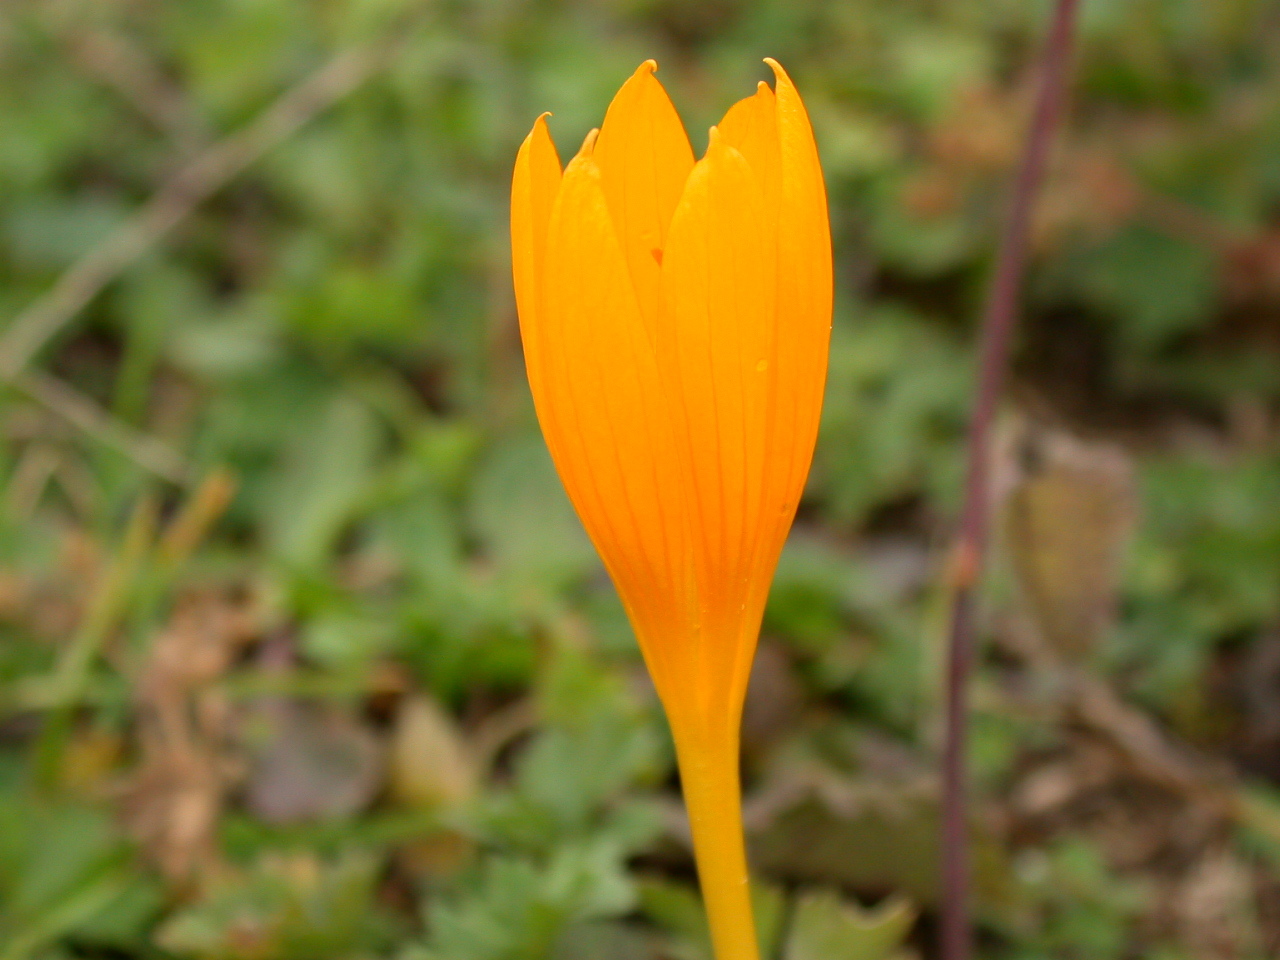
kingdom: Plantae
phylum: Tracheophyta
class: Liliopsida
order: Asparagales
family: Iridaceae
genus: Crocus
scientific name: Crocus scharojanii
